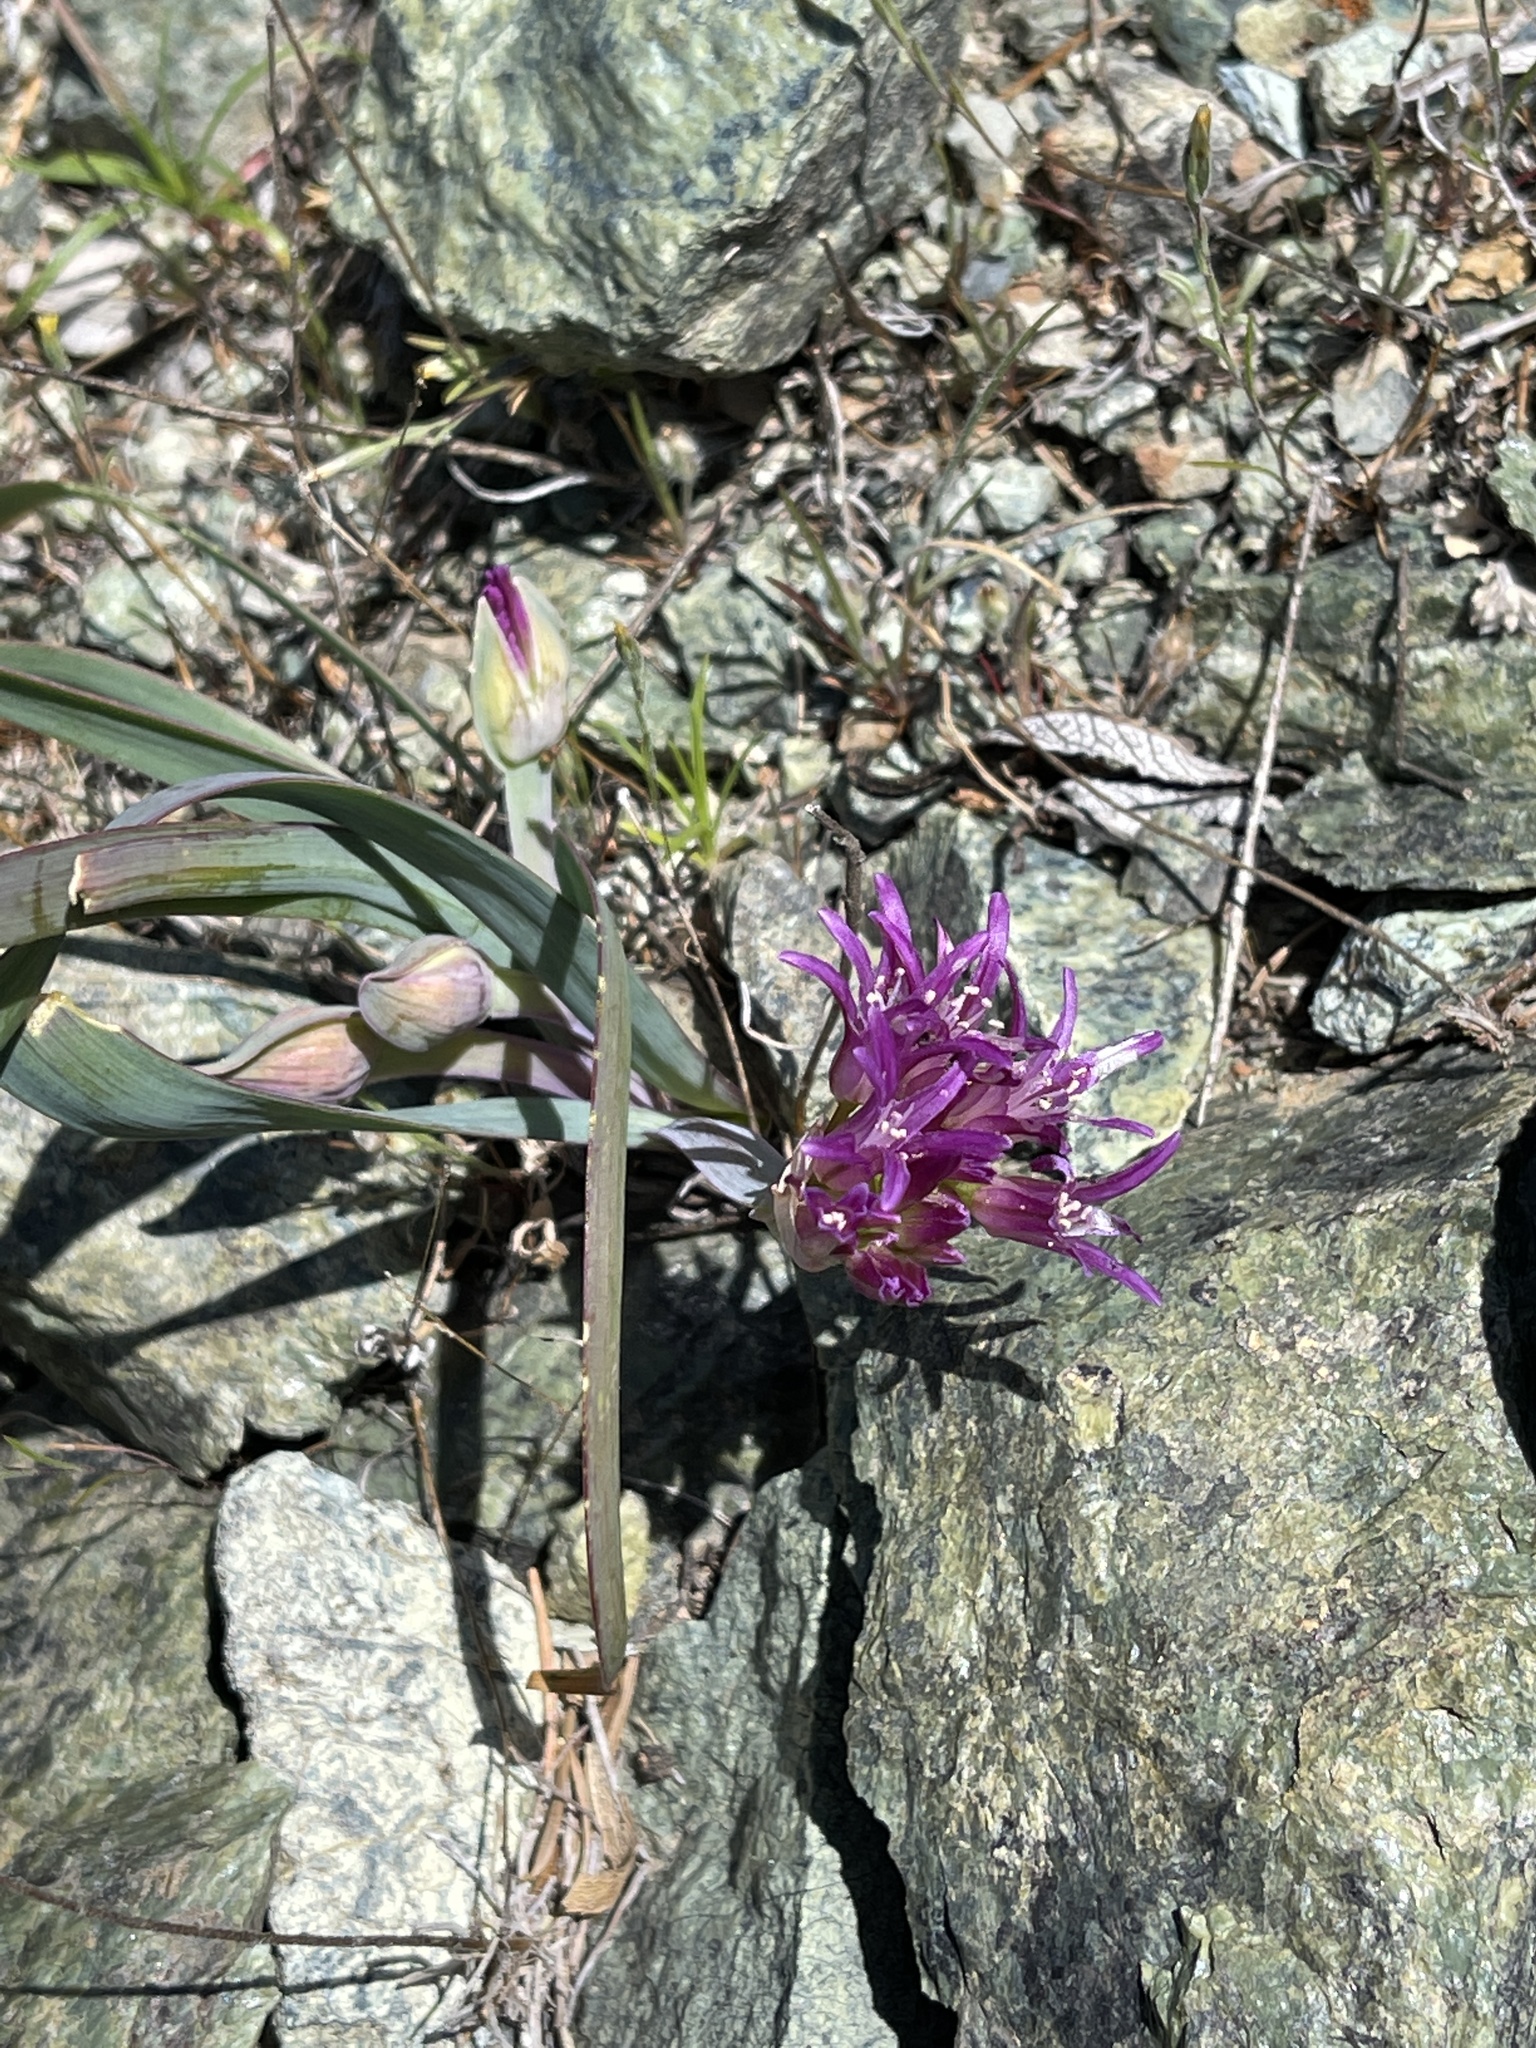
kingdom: Plantae
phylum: Tracheophyta
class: Liliopsida
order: Asparagales
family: Amaryllidaceae
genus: Allium
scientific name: Allium falcifolium
